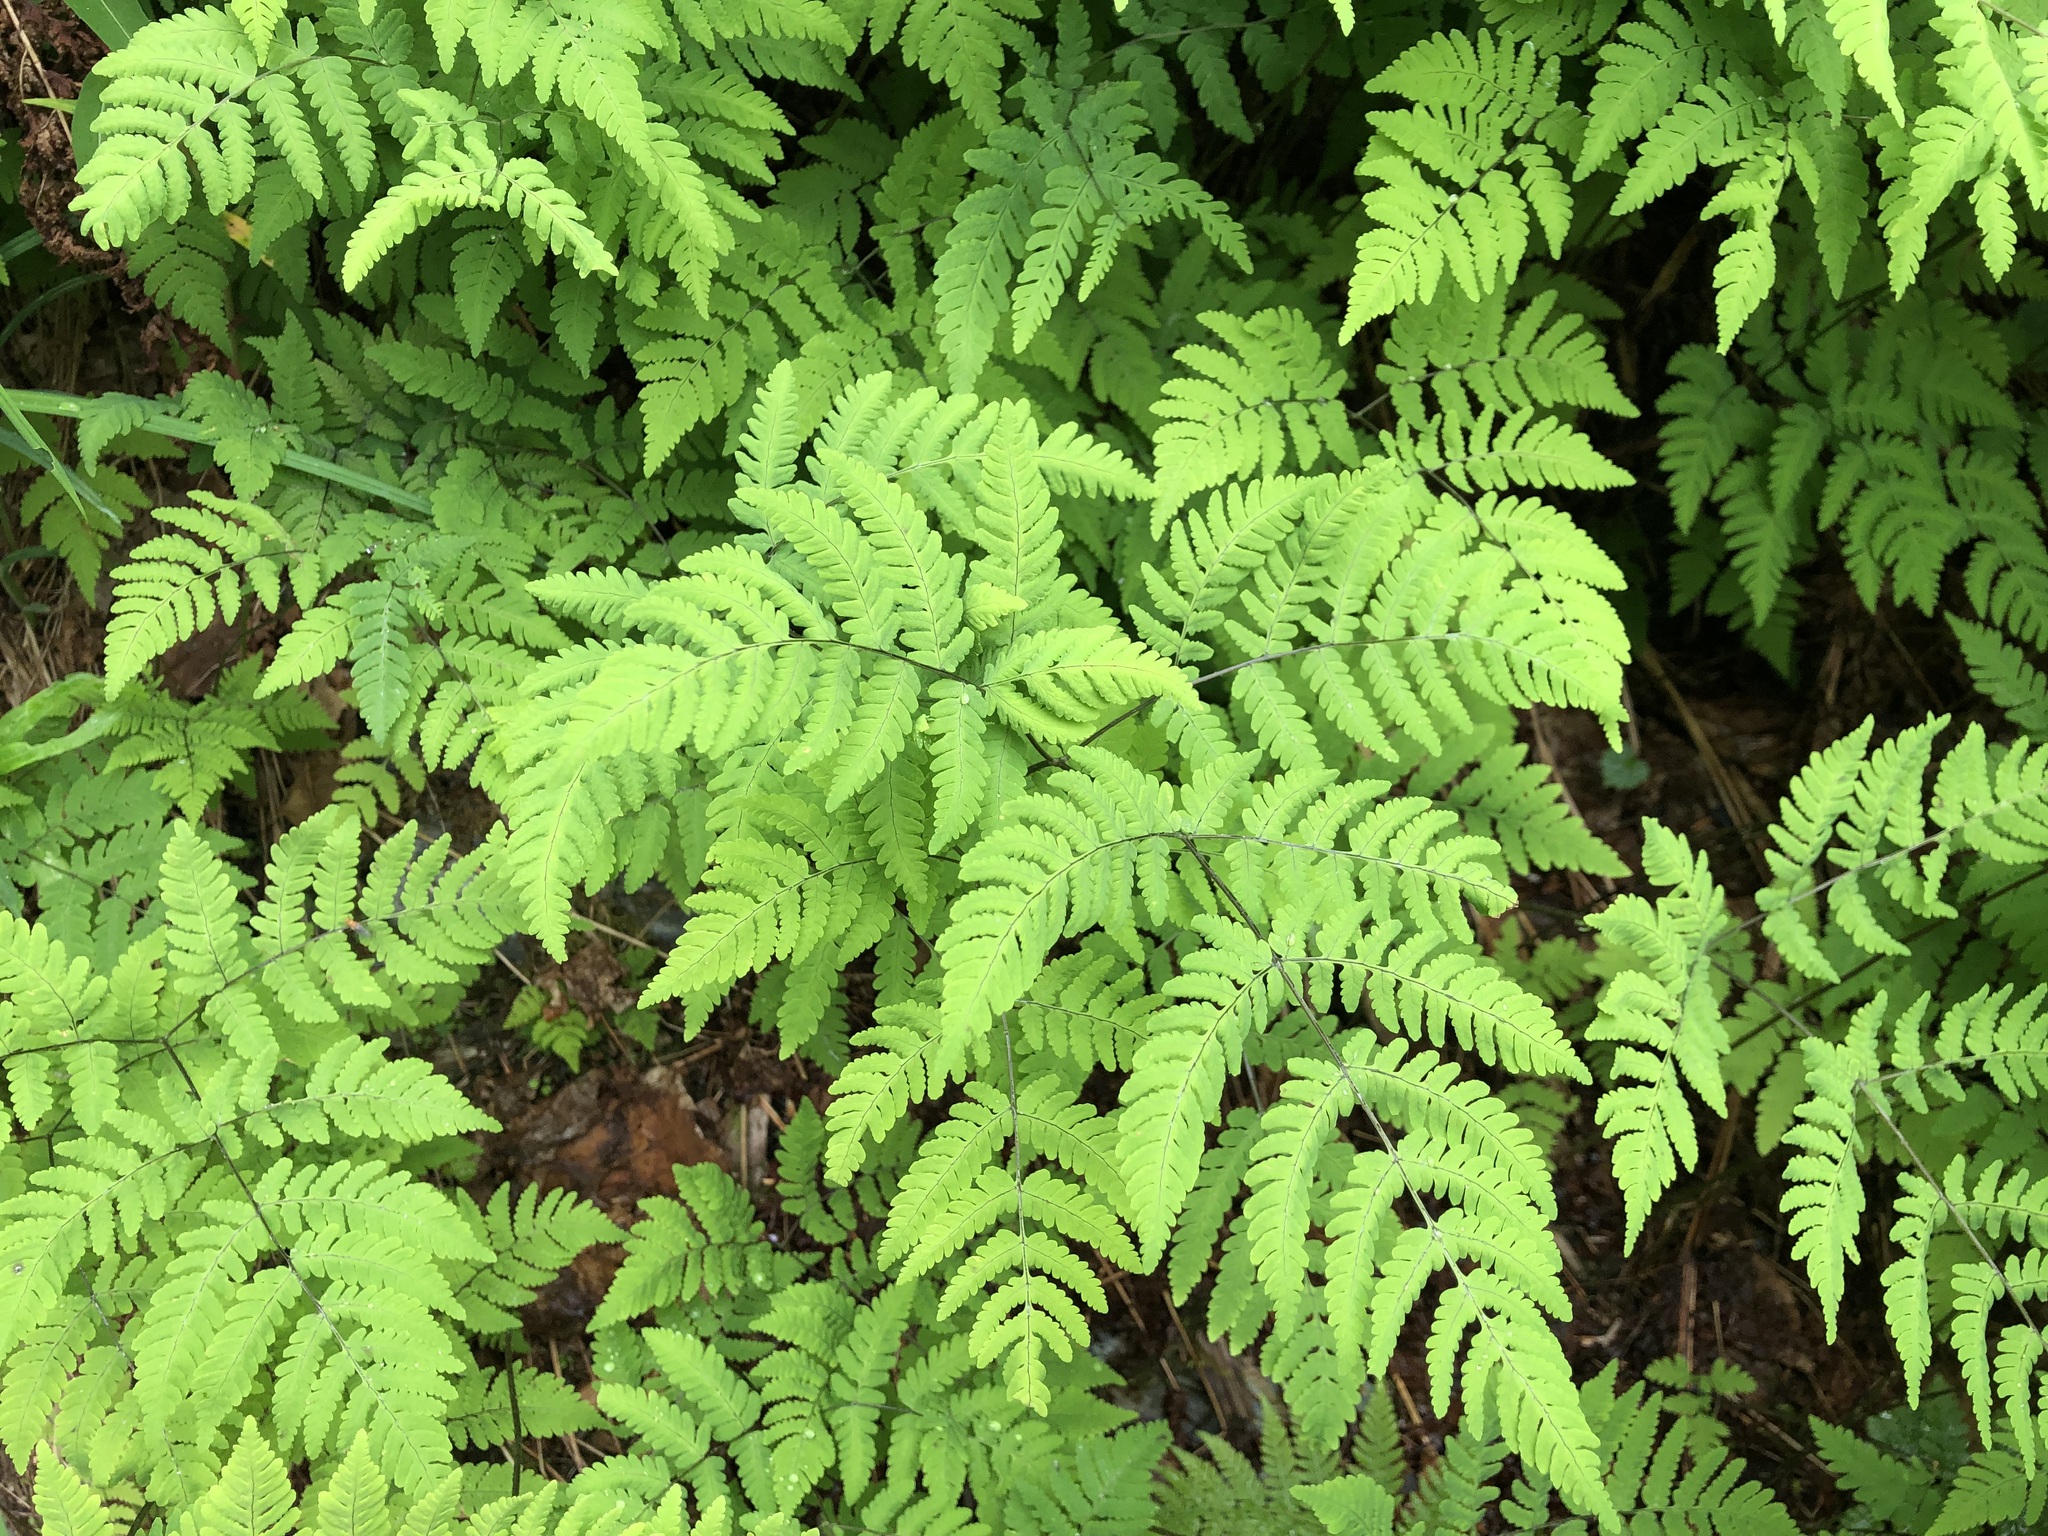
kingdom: Plantae
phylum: Tracheophyta
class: Polypodiopsida
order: Polypodiales
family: Cystopteridaceae
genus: Gymnocarpium
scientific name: Gymnocarpium disjunctum
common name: Western oak fern
